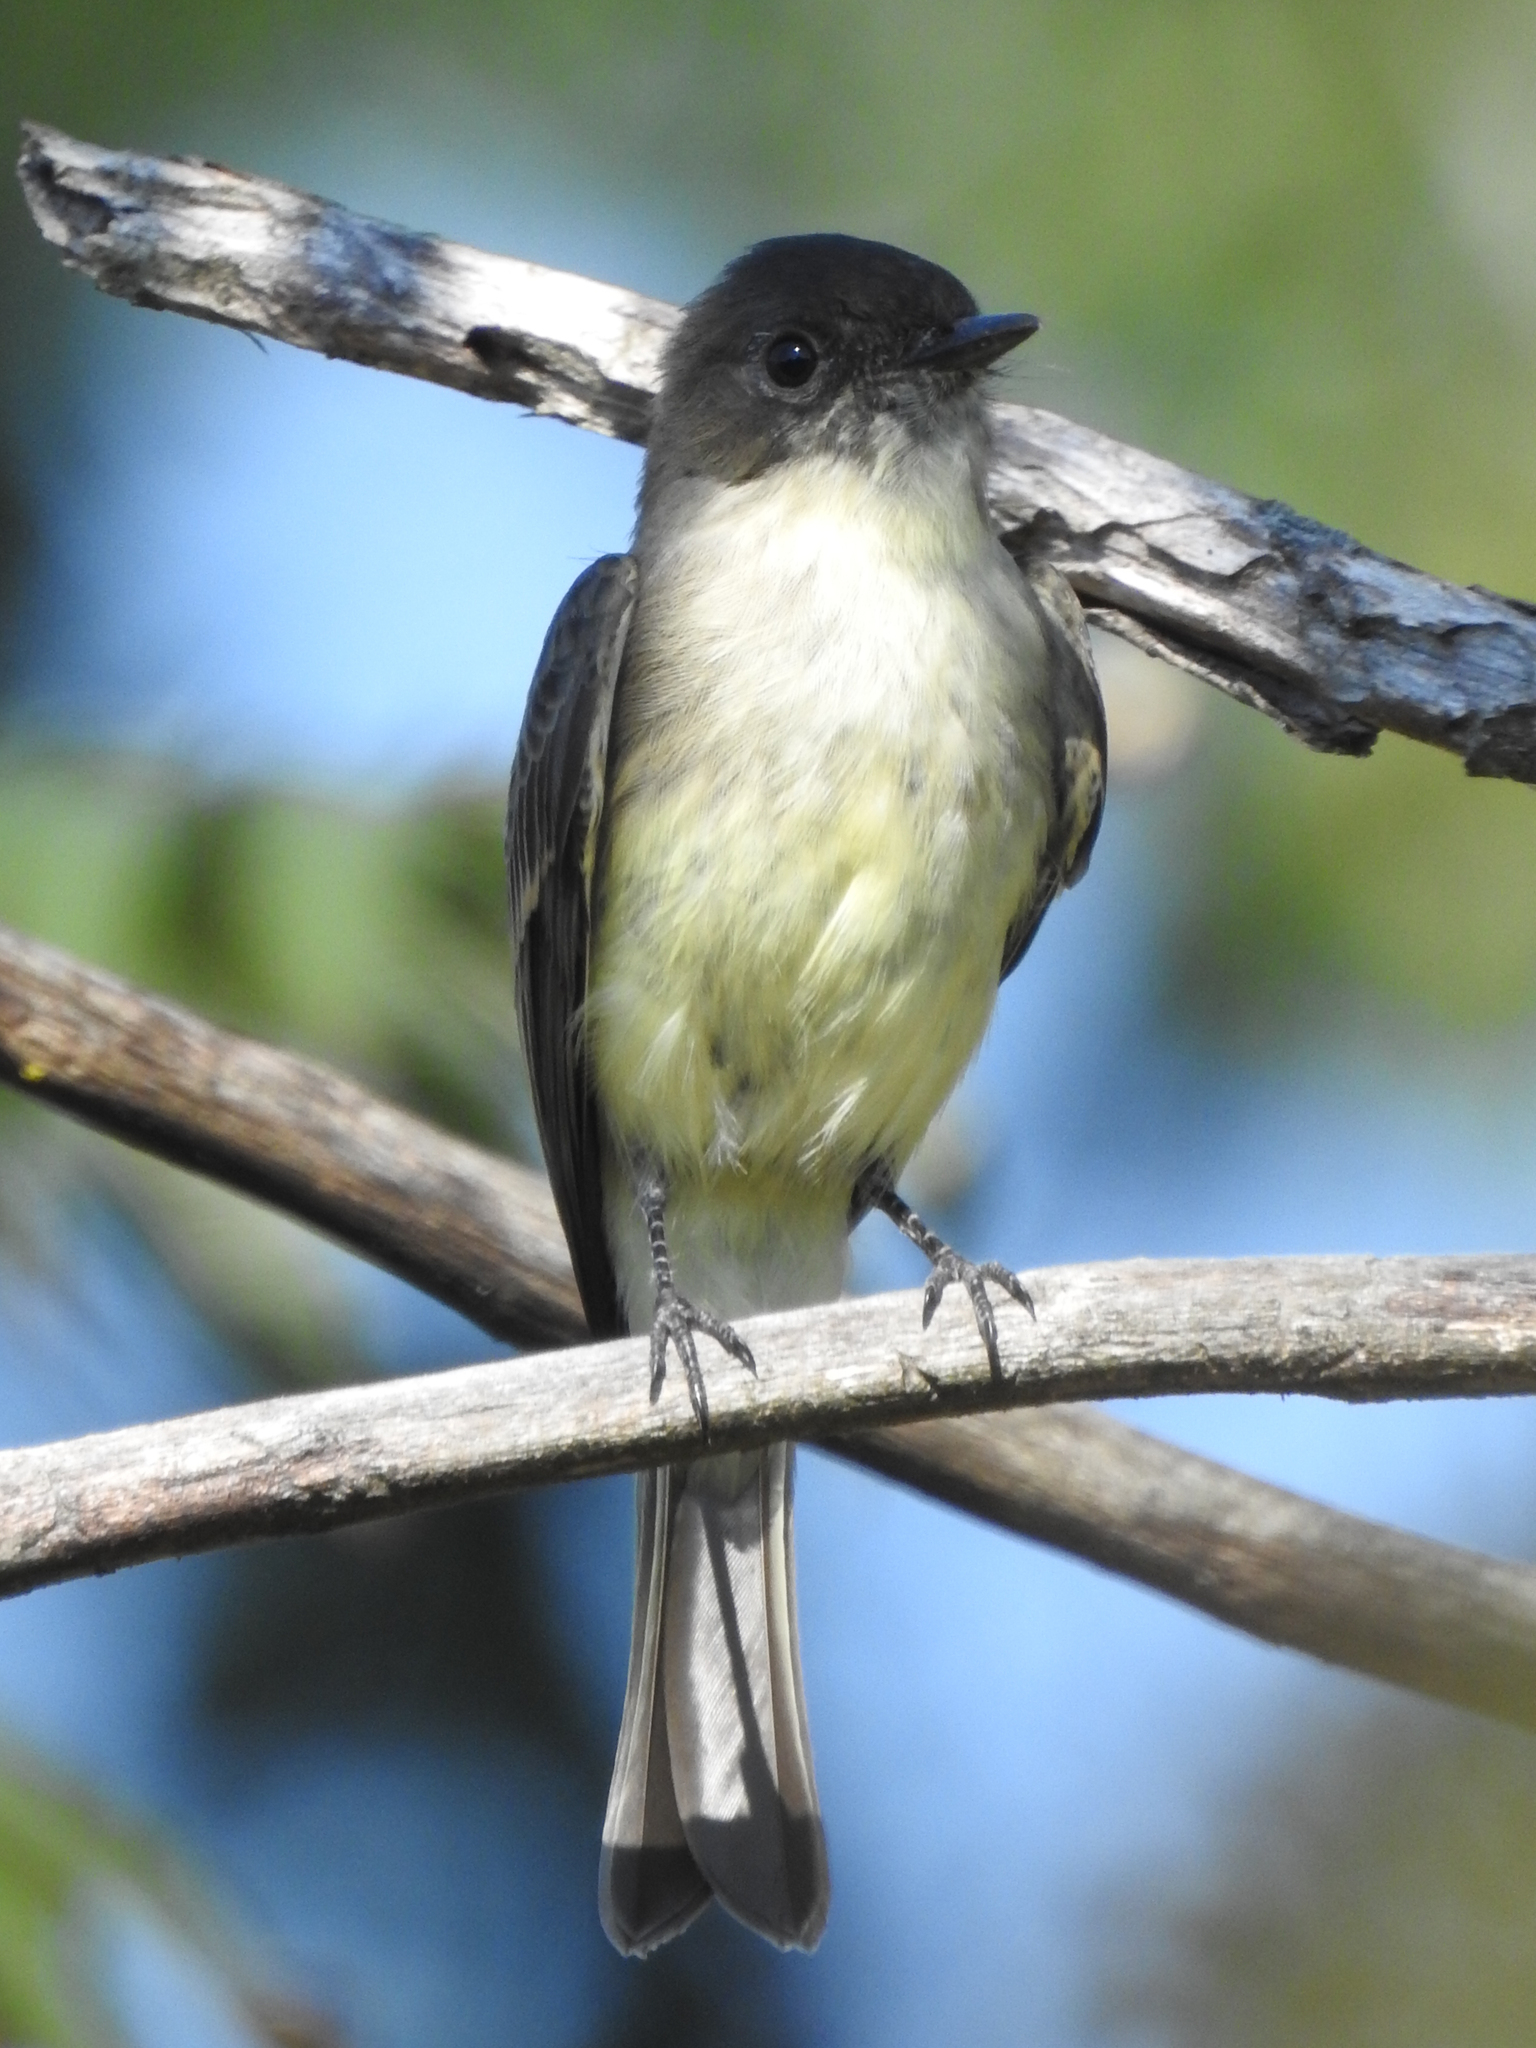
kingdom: Animalia
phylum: Chordata
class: Aves
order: Passeriformes
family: Tyrannidae
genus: Sayornis
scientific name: Sayornis phoebe
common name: Eastern phoebe
